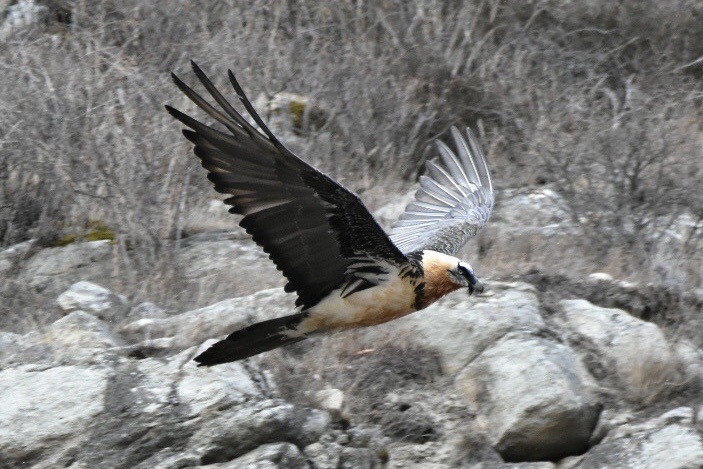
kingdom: Animalia
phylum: Chordata
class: Aves
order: Accipitriformes
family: Accipitridae
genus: Gypaetus
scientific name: Gypaetus barbatus
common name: Bearded vulture
